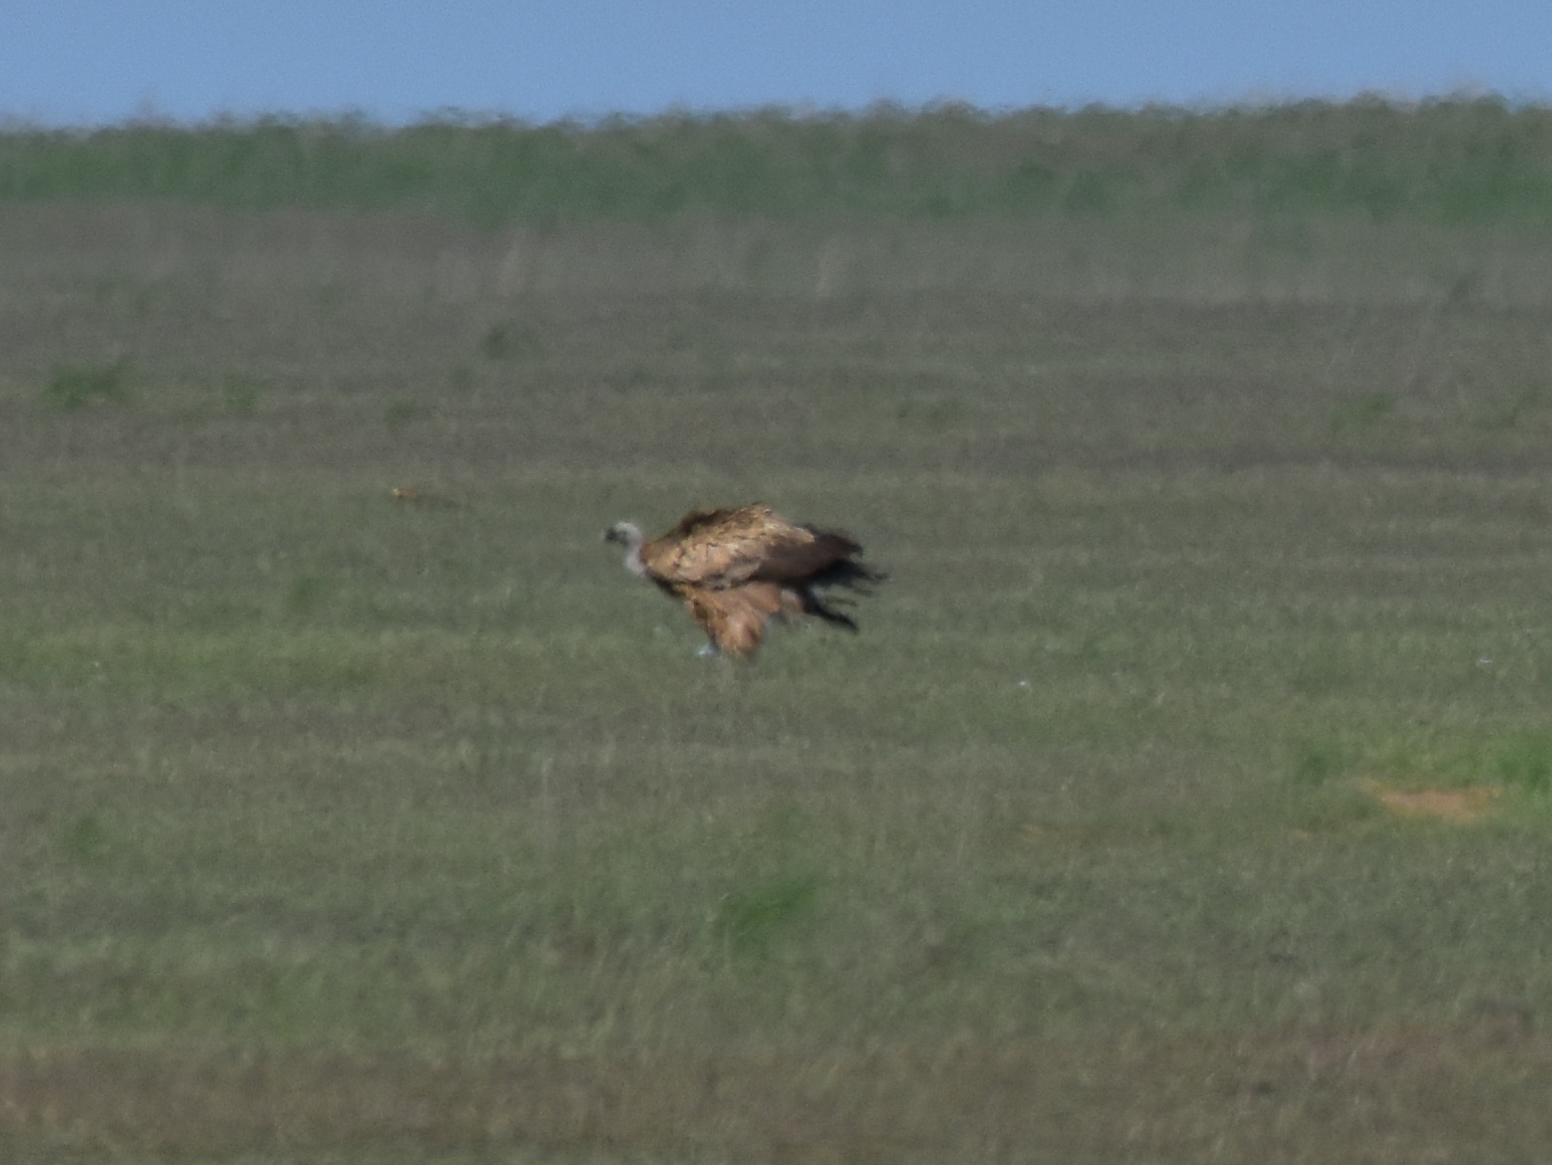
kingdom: Animalia
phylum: Chordata
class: Aves
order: Accipitriformes
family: Accipitridae
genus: Gyps
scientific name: Gyps fulvus
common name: Griffon vulture
